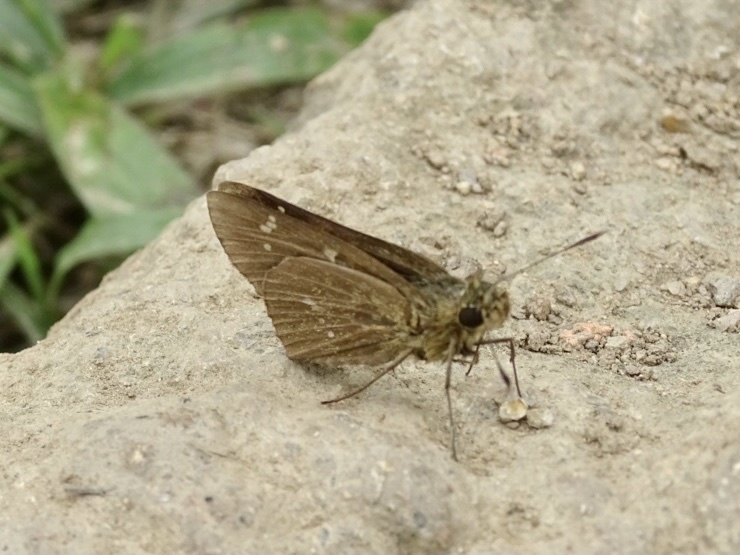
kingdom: Animalia
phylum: Arthropoda
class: Insecta
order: Lepidoptera
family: Hesperiidae
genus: Polytremis
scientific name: Polytremis lubricans
